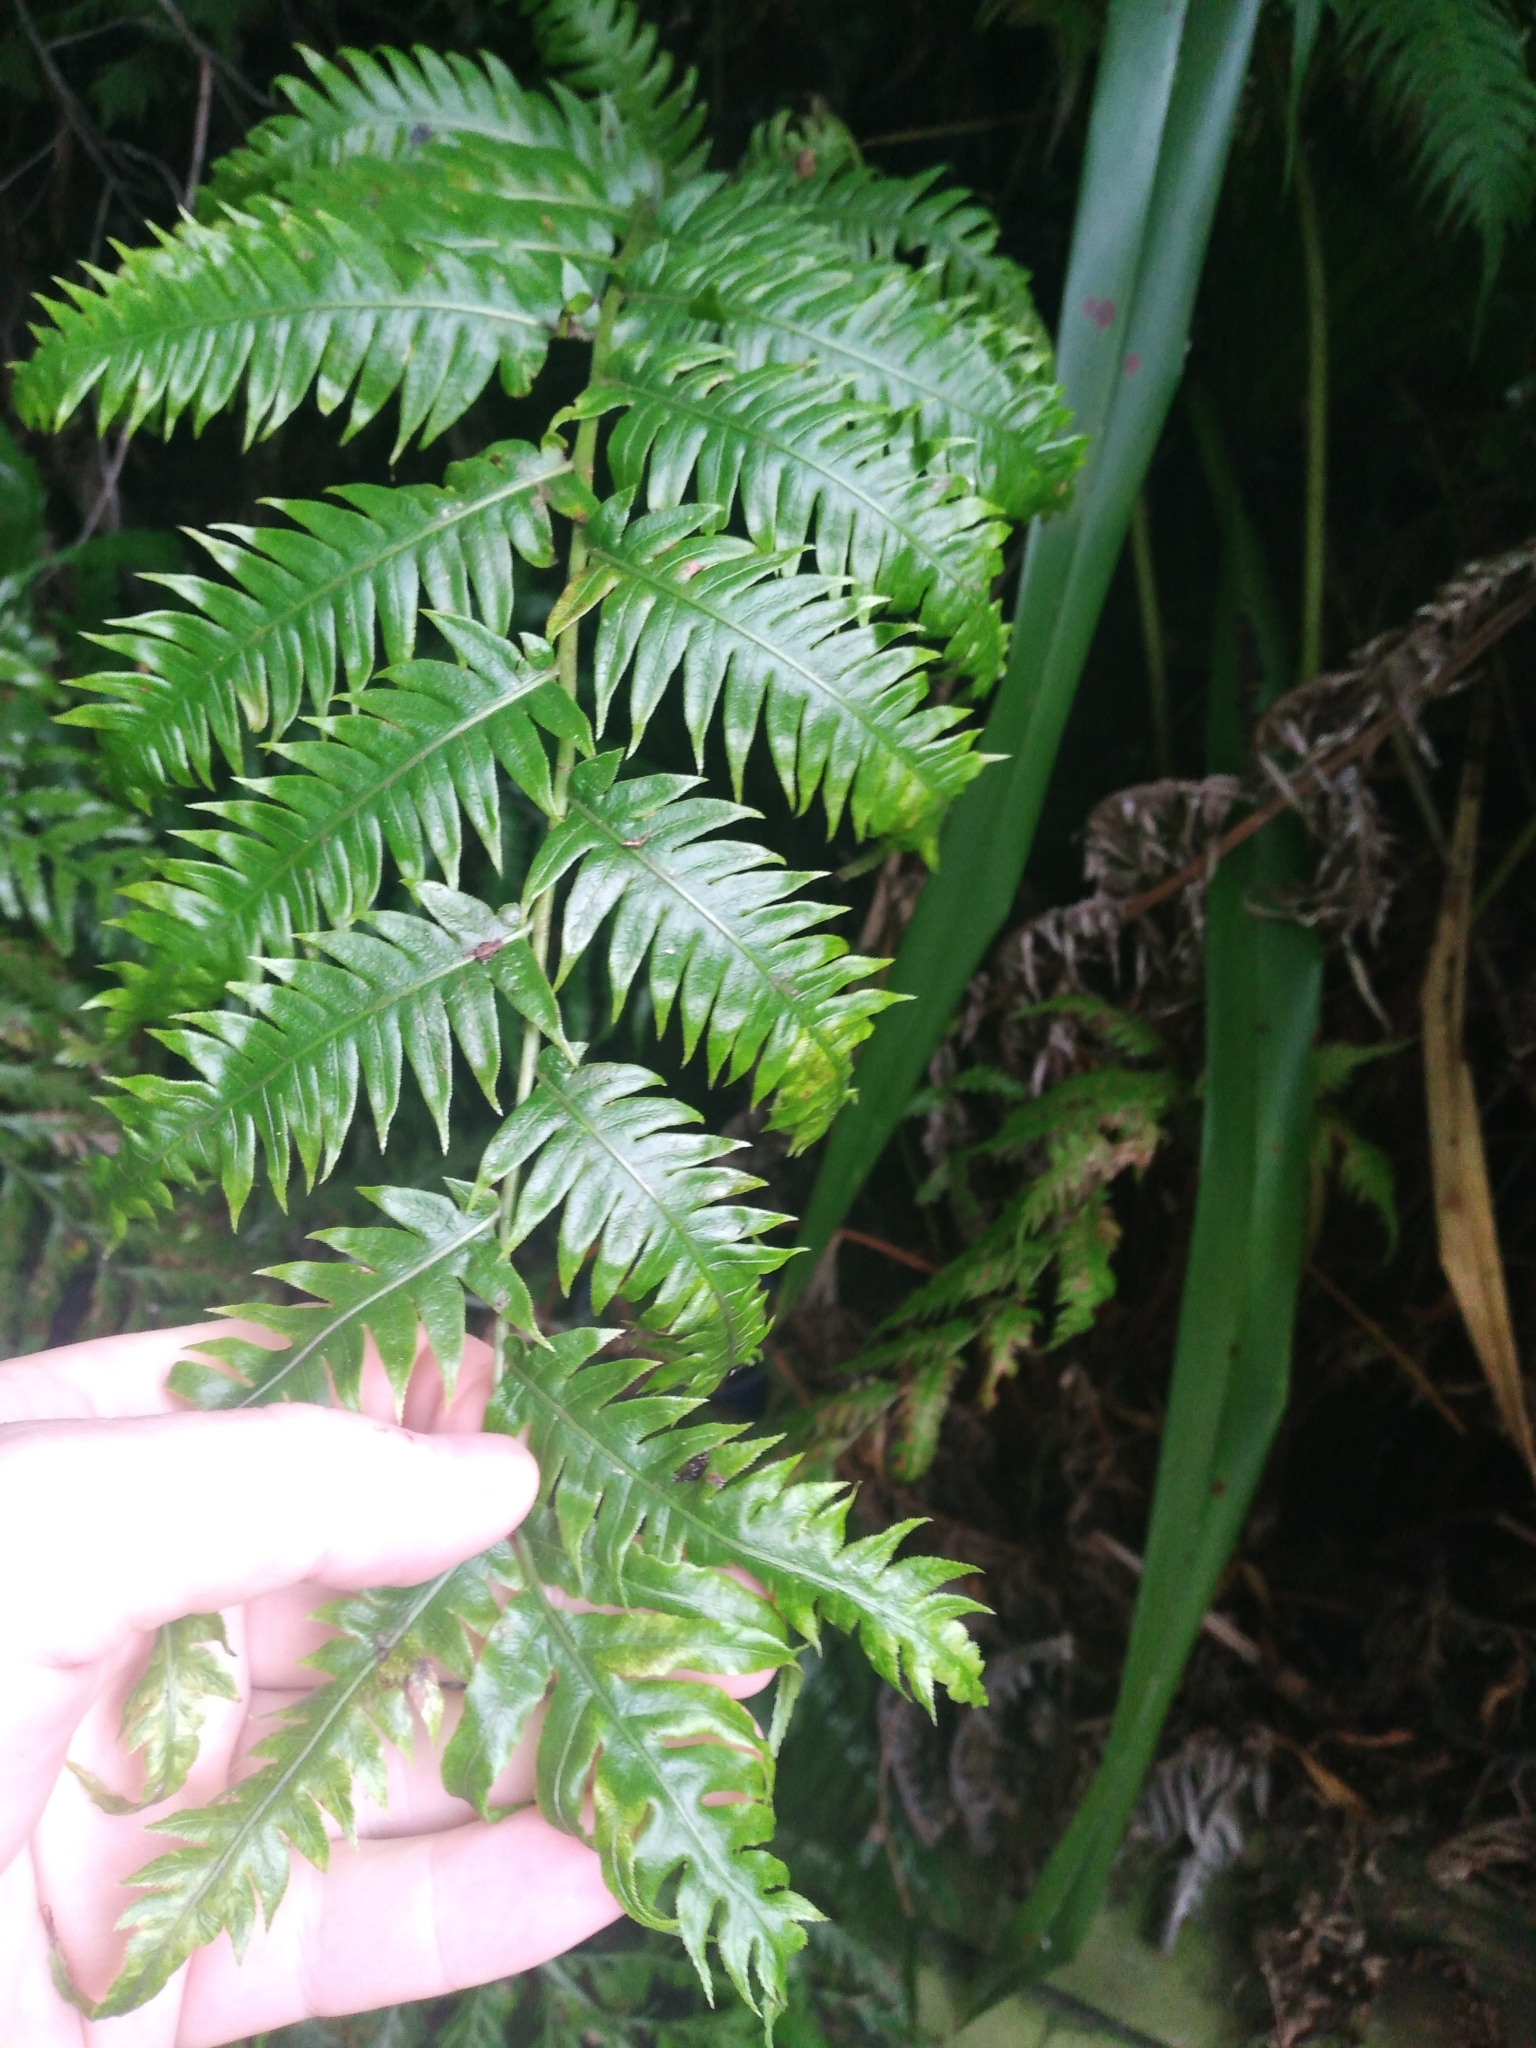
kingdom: Plantae
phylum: Tracheophyta
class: Polypodiopsida
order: Polypodiales
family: Blechnaceae
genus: Woodwardia
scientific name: Woodwardia radicans
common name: Rooting chainfern
